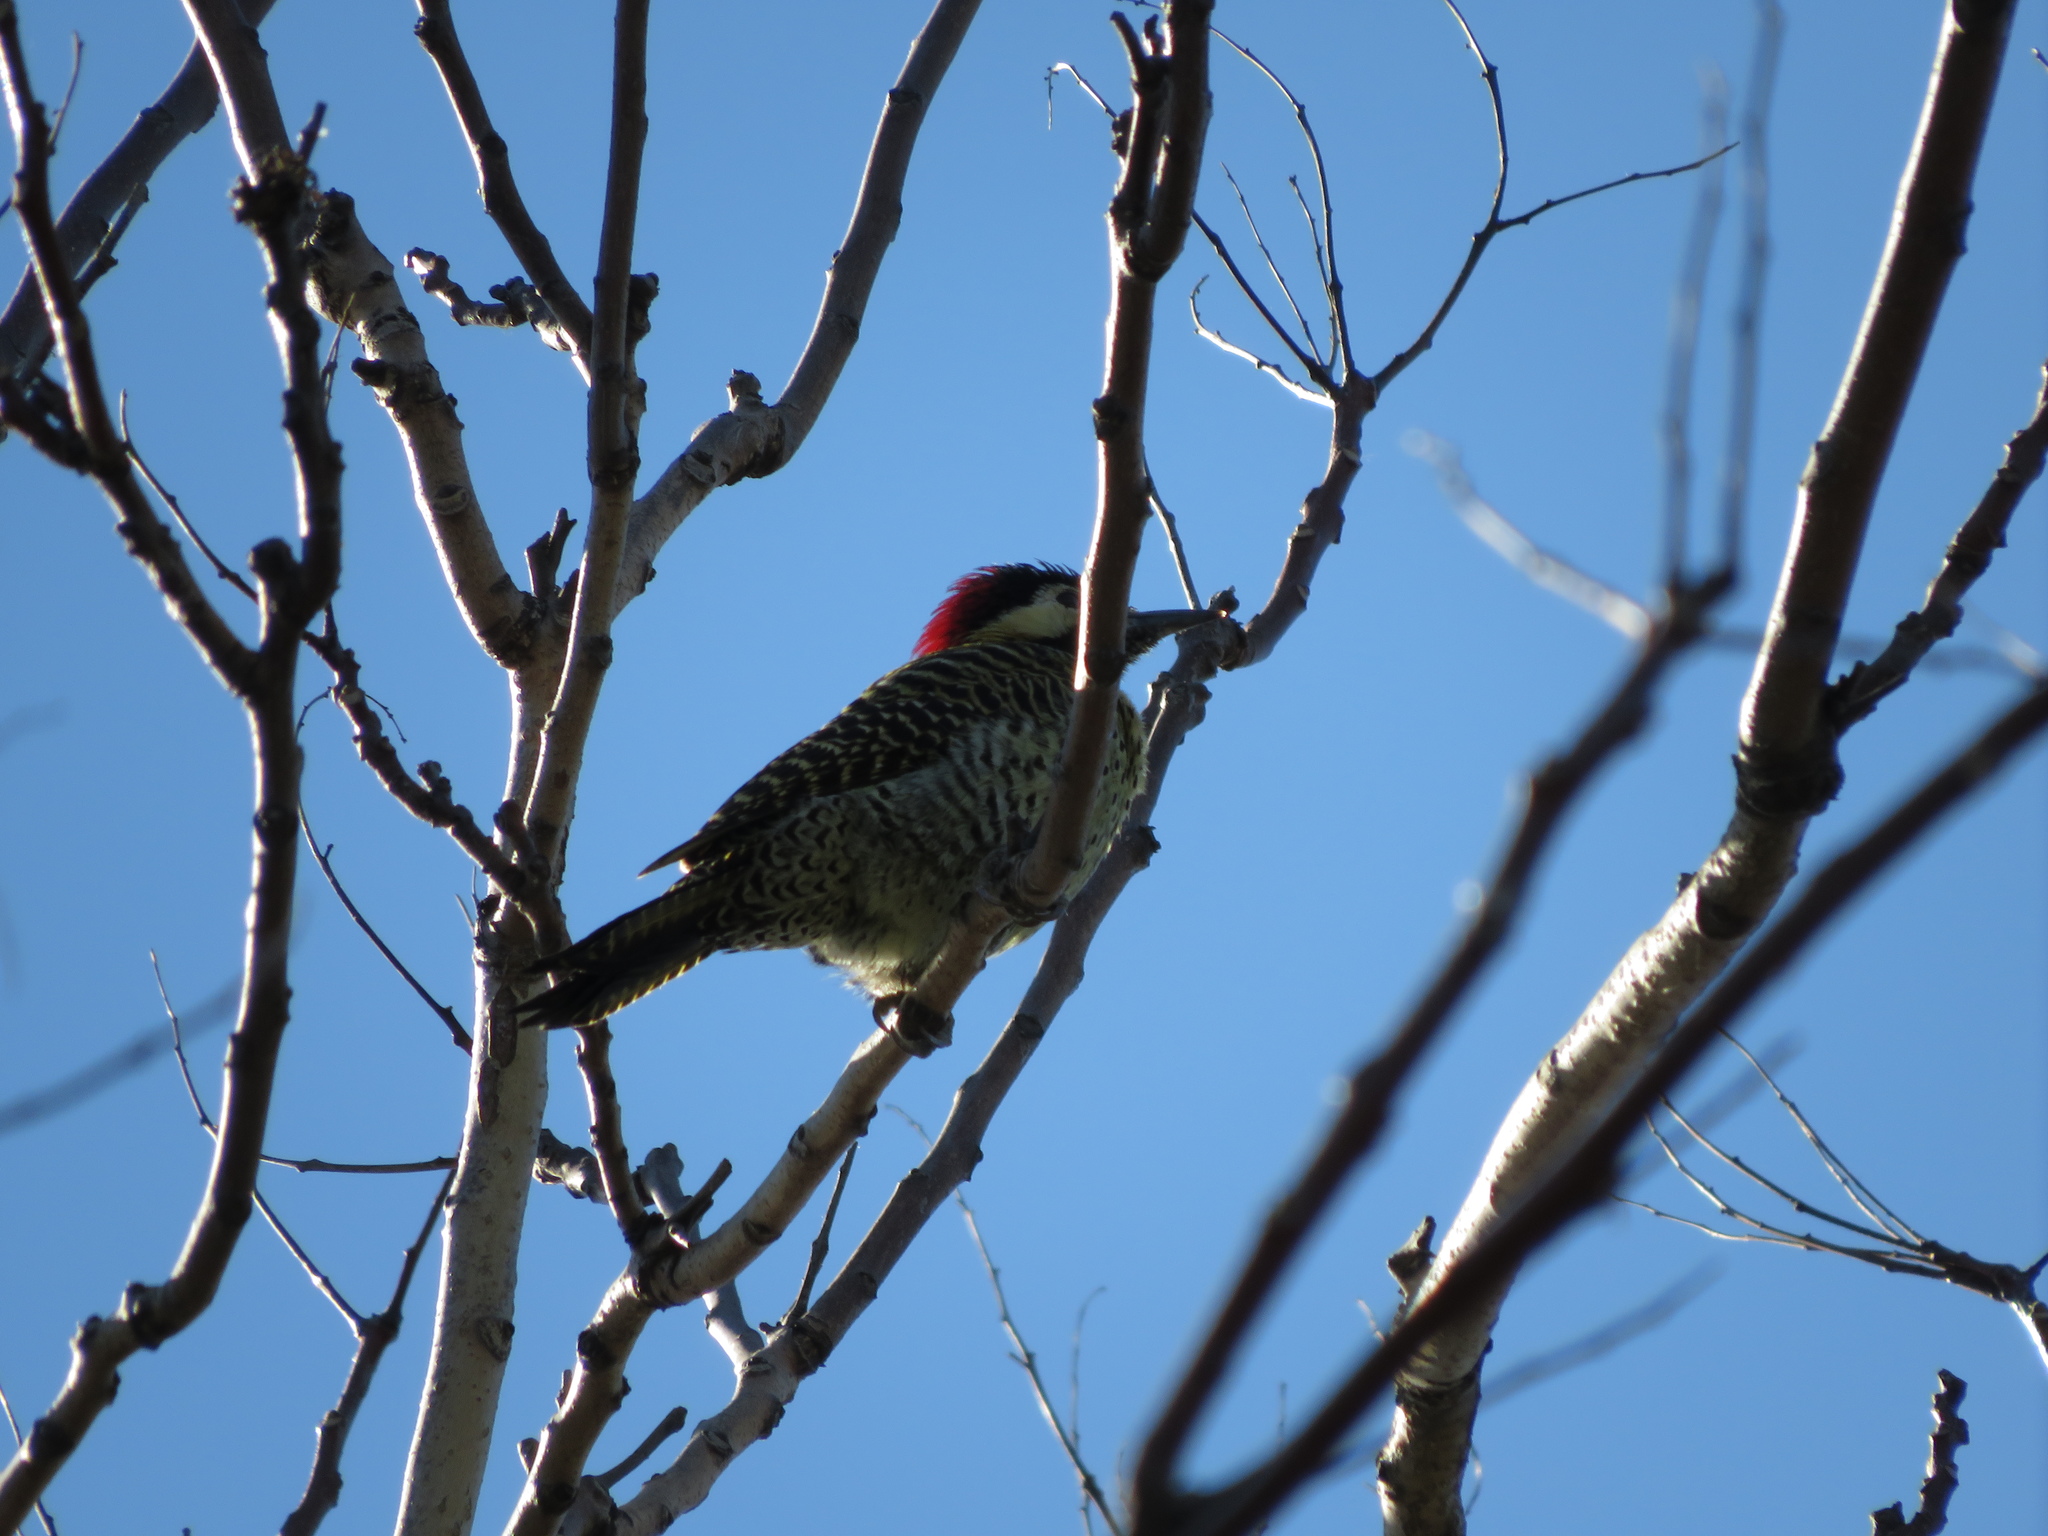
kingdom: Animalia
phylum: Chordata
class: Aves
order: Piciformes
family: Picidae
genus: Colaptes
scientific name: Colaptes melanochloros
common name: Green-barred woodpecker
